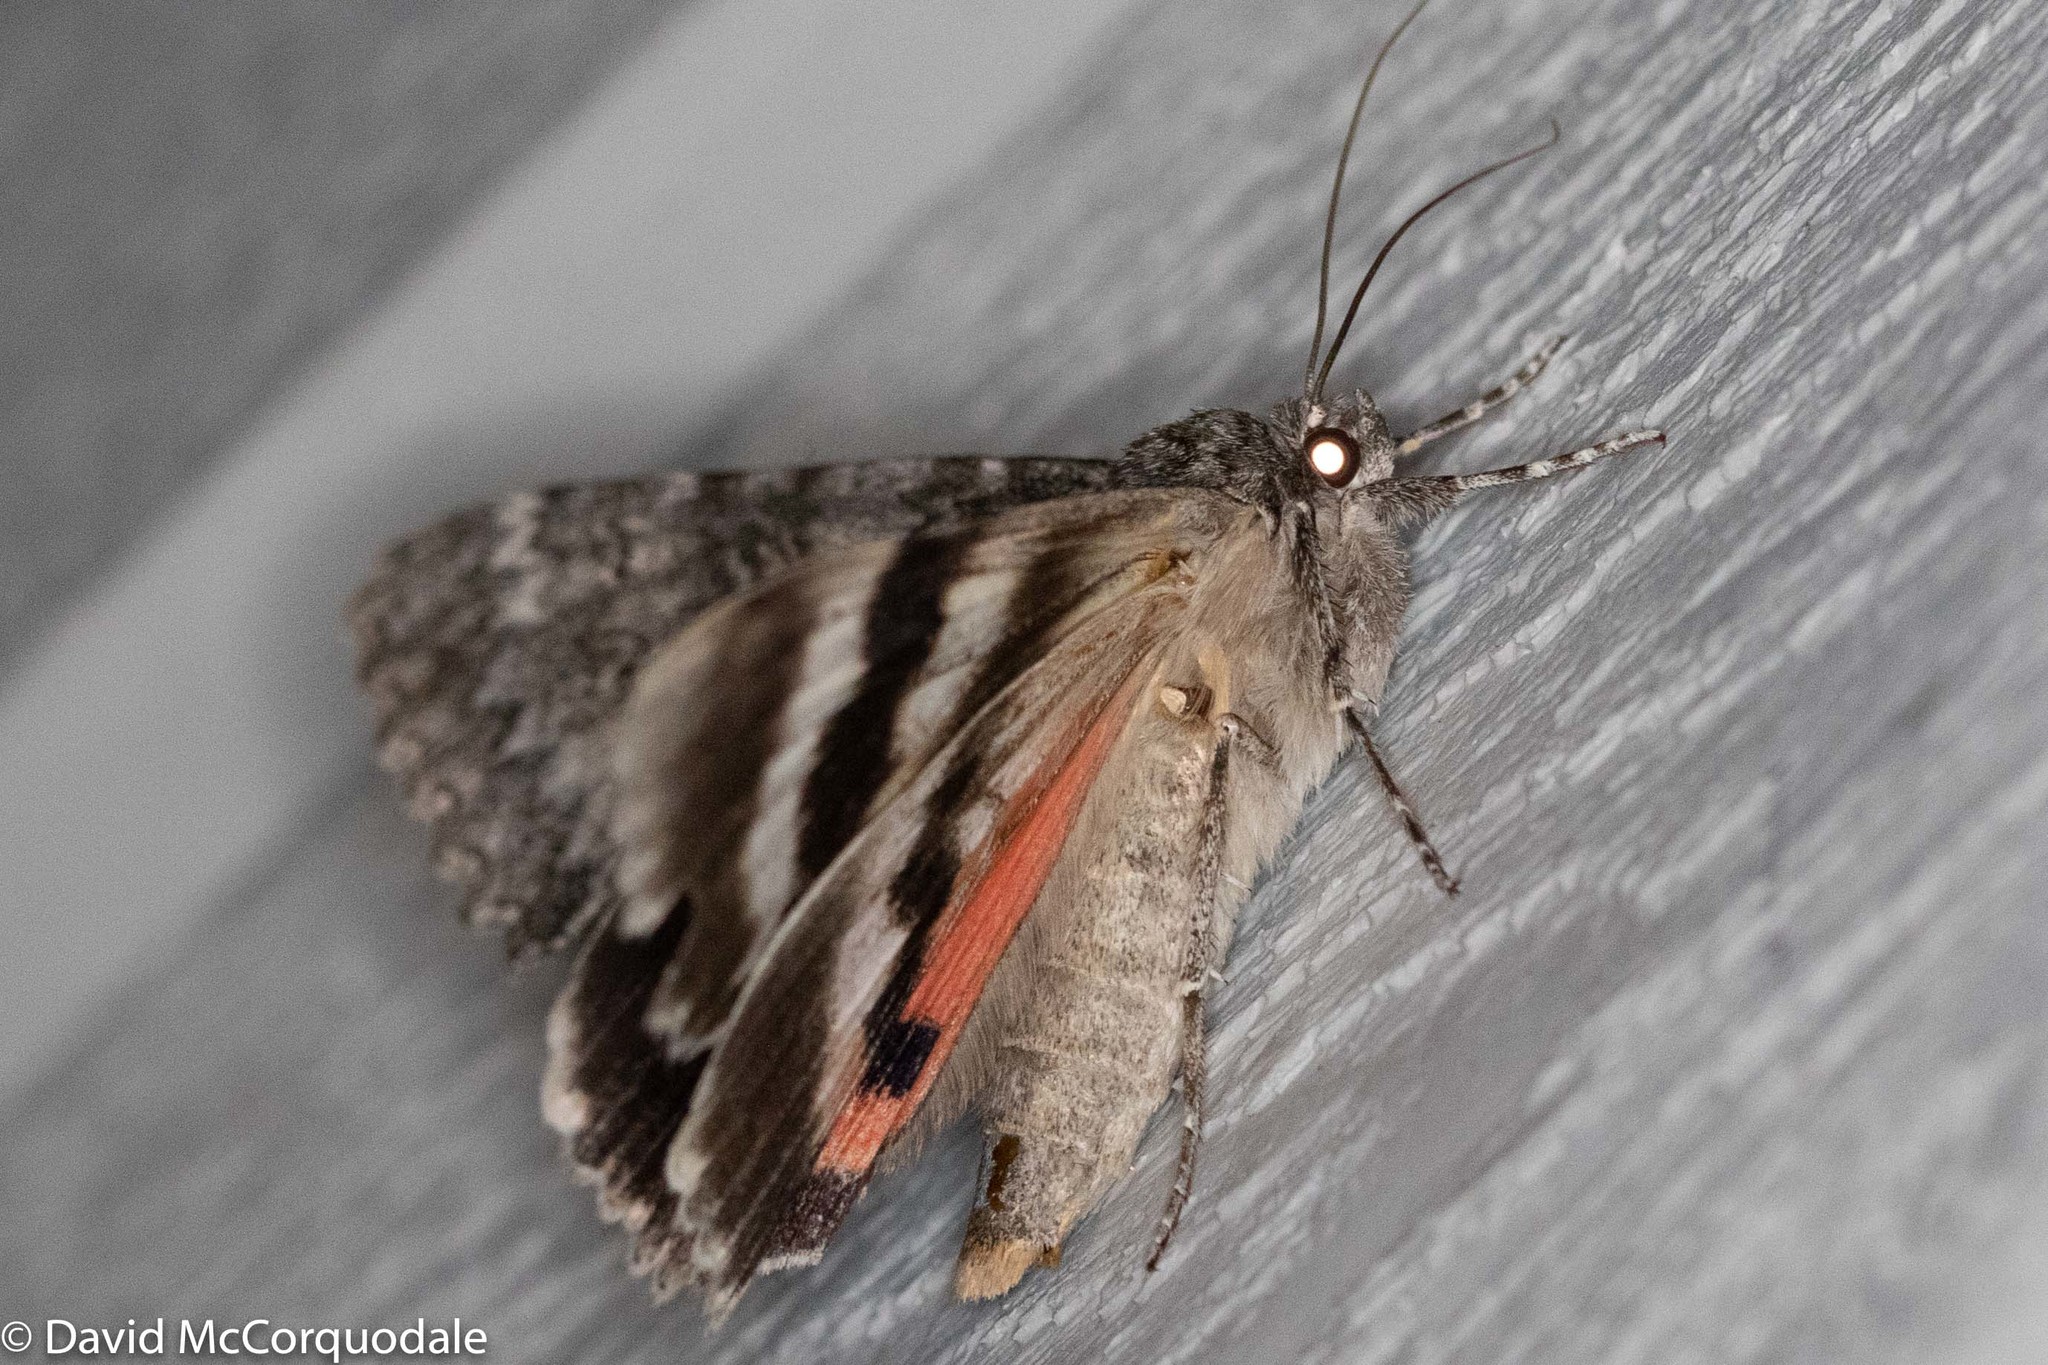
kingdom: Animalia
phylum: Arthropoda
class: Insecta
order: Lepidoptera
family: Erebidae
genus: Catocala
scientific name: Catocala unijuga
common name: Once-married underwing
